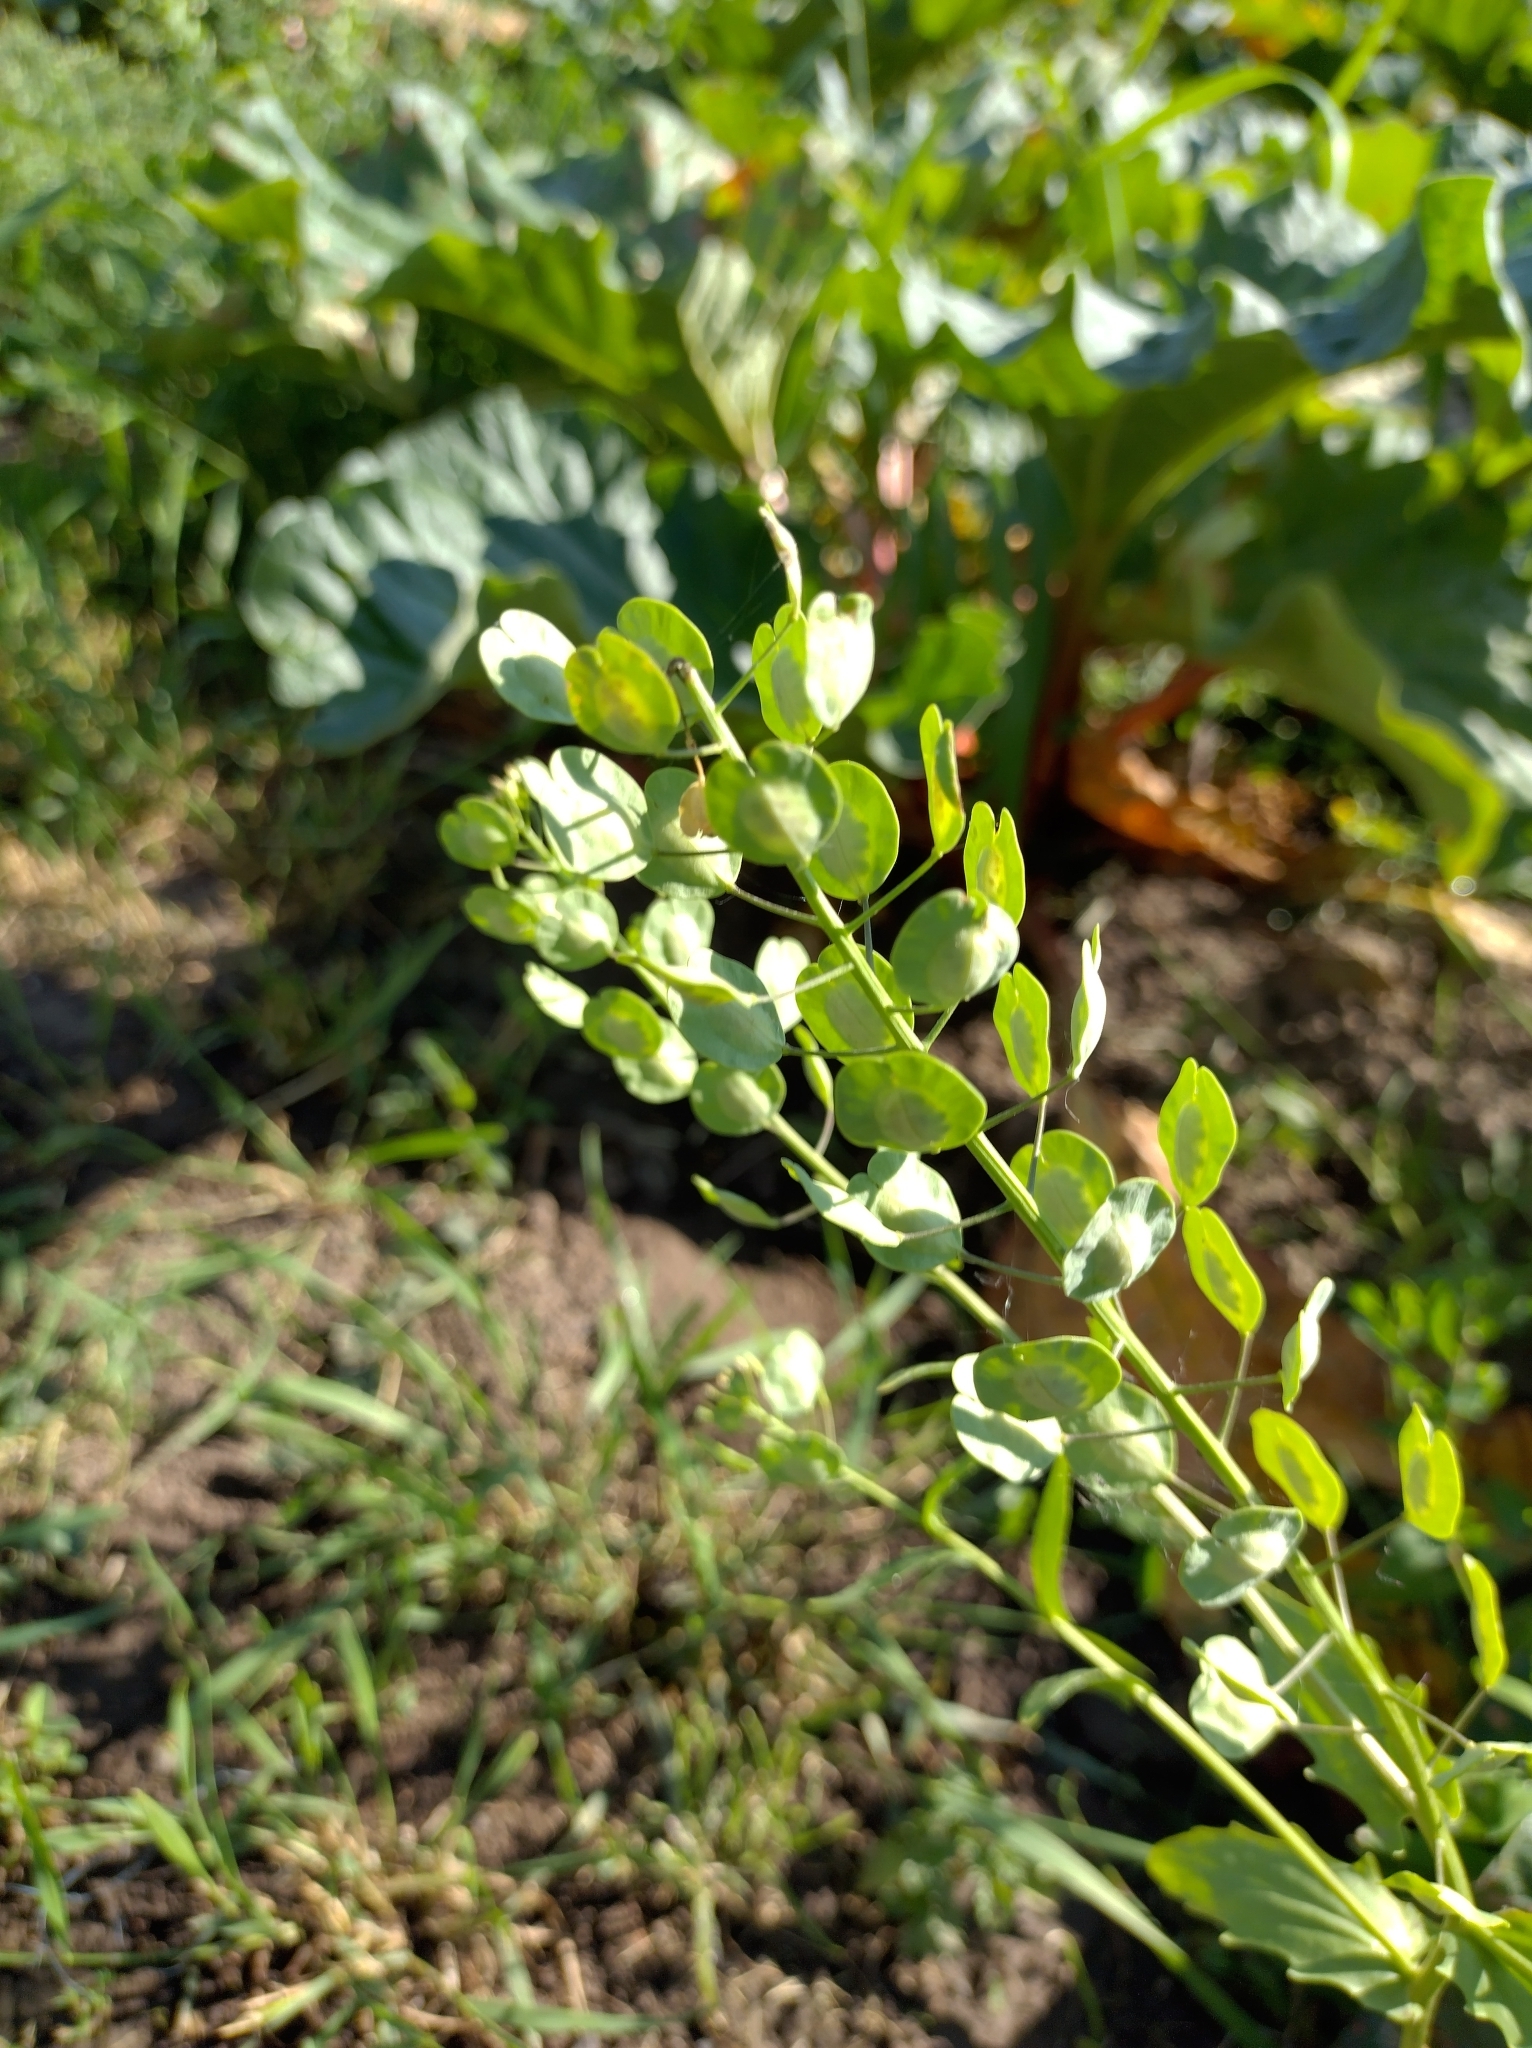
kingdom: Plantae
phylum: Tracheophyta
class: Magnoliopsida
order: Brassicales
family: Brassicaceae
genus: Thlaspi
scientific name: Thlaspi arvense
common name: Field pennycress
